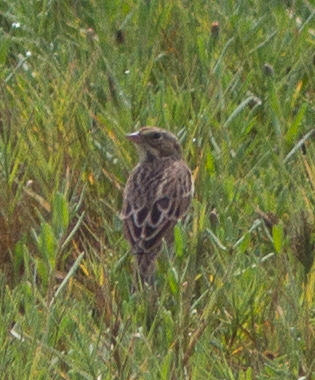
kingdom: Animalia
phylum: Chordata
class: Aves
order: Passeriformes
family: Passerellidae
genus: Passerculus
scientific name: Passerculus sandwichensis
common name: Savannah sparrow
